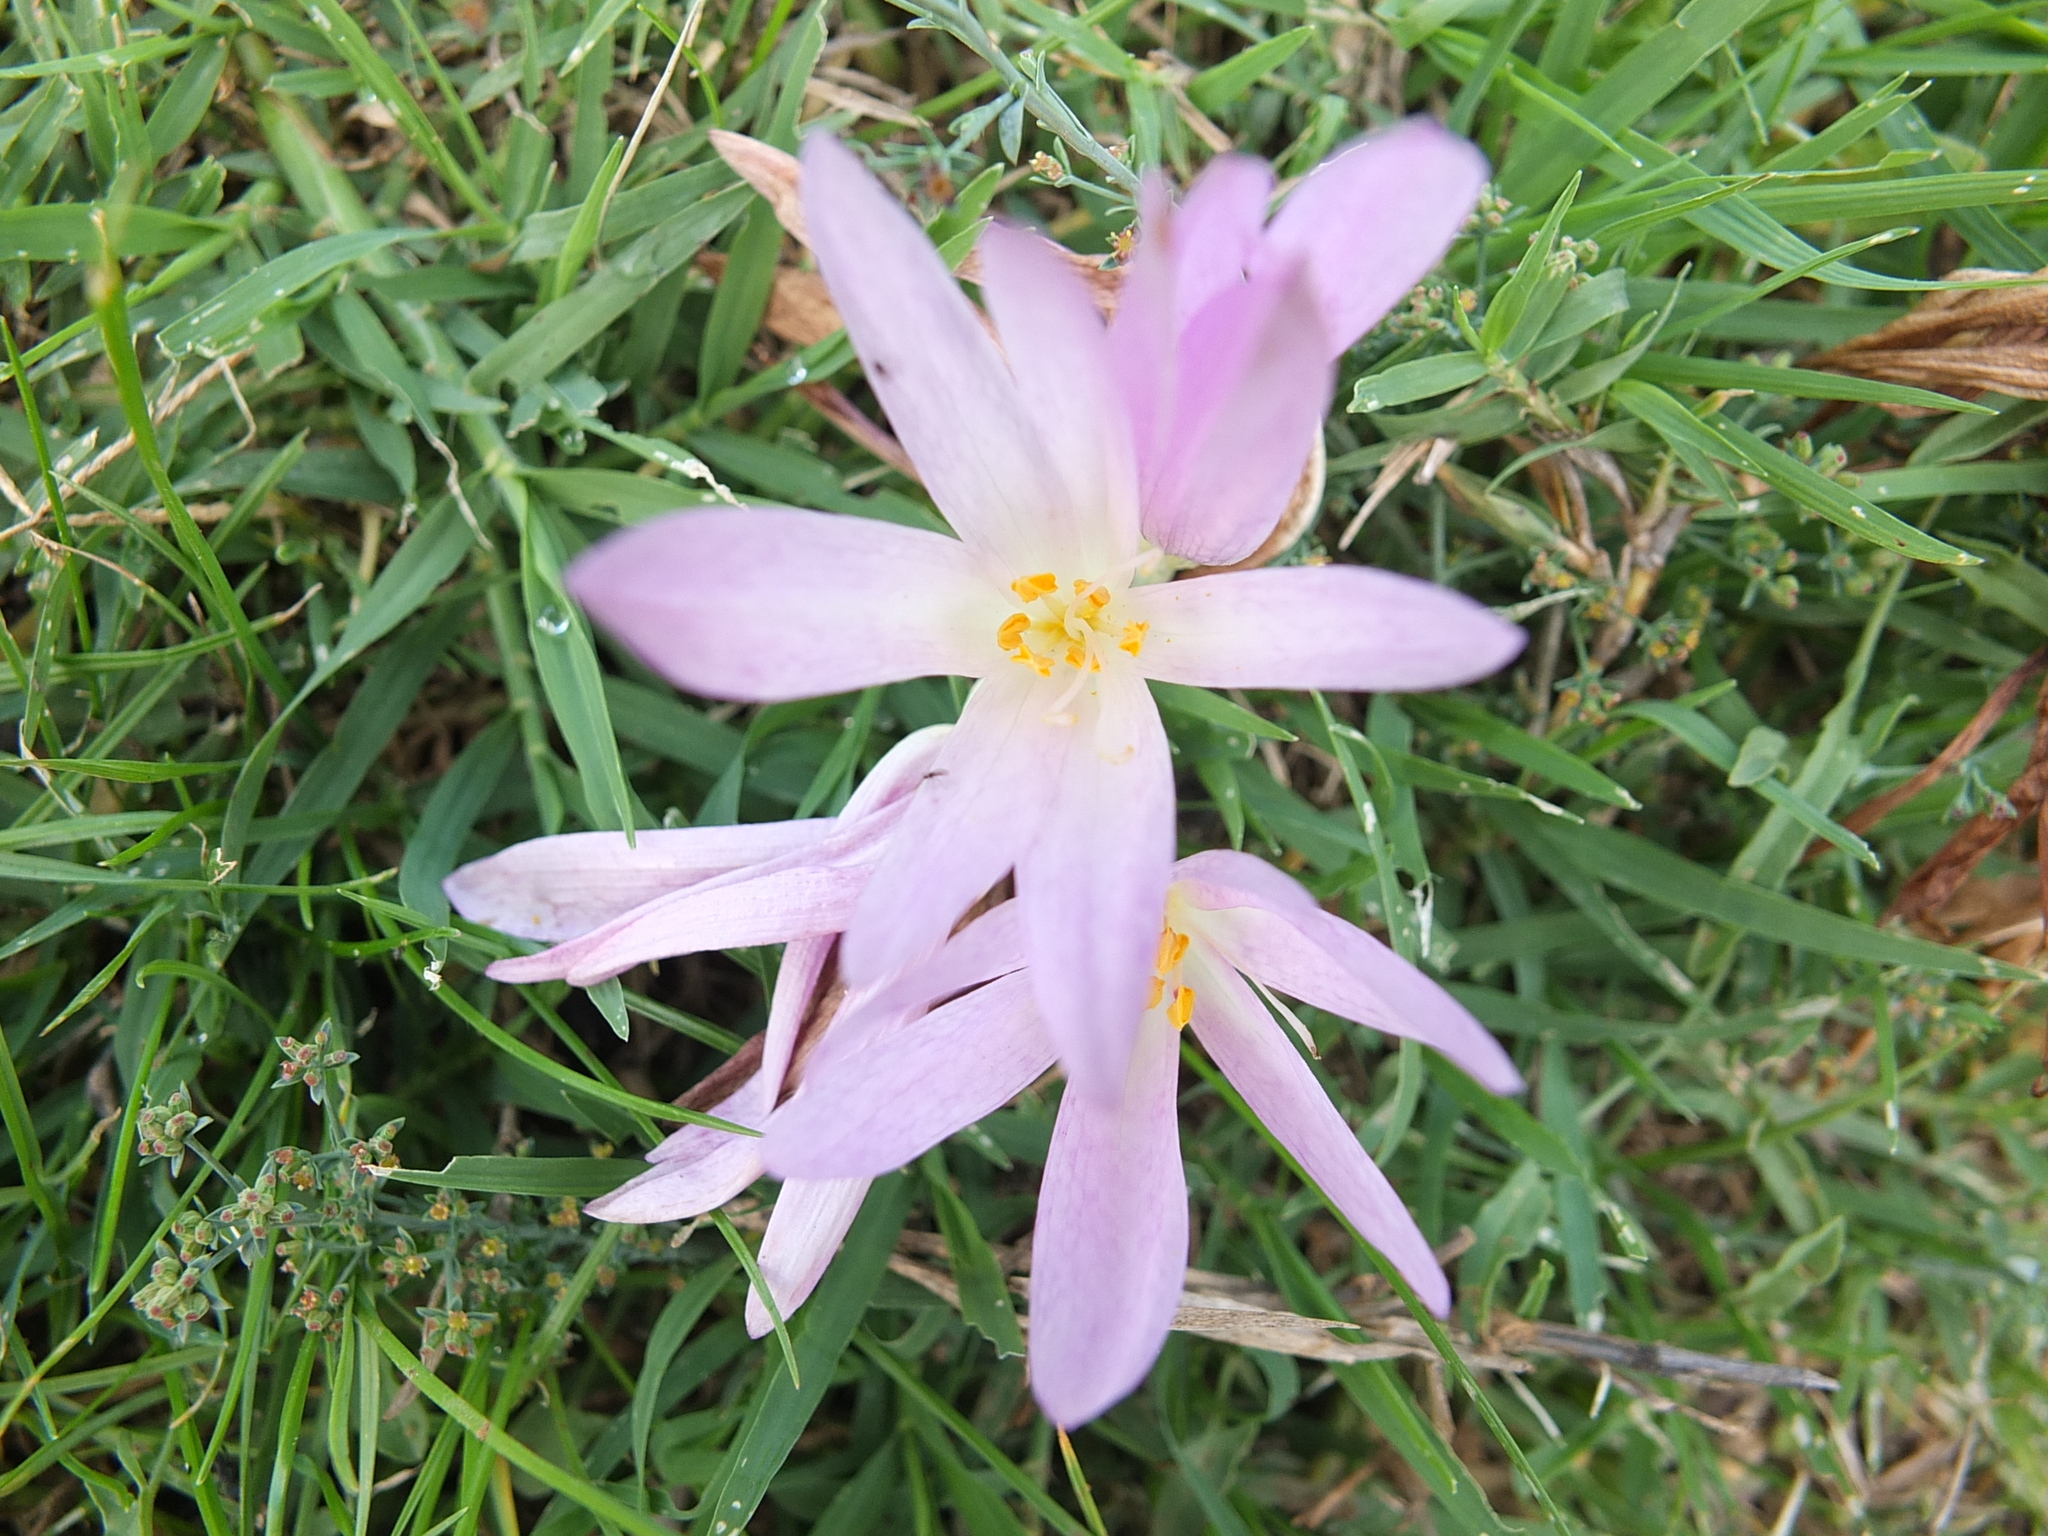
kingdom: Plantae
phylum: Tracheophyta
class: Liliopsida
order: Liliales
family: Colchicaceae
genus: Colchicum
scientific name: Colchicum lusitanum
